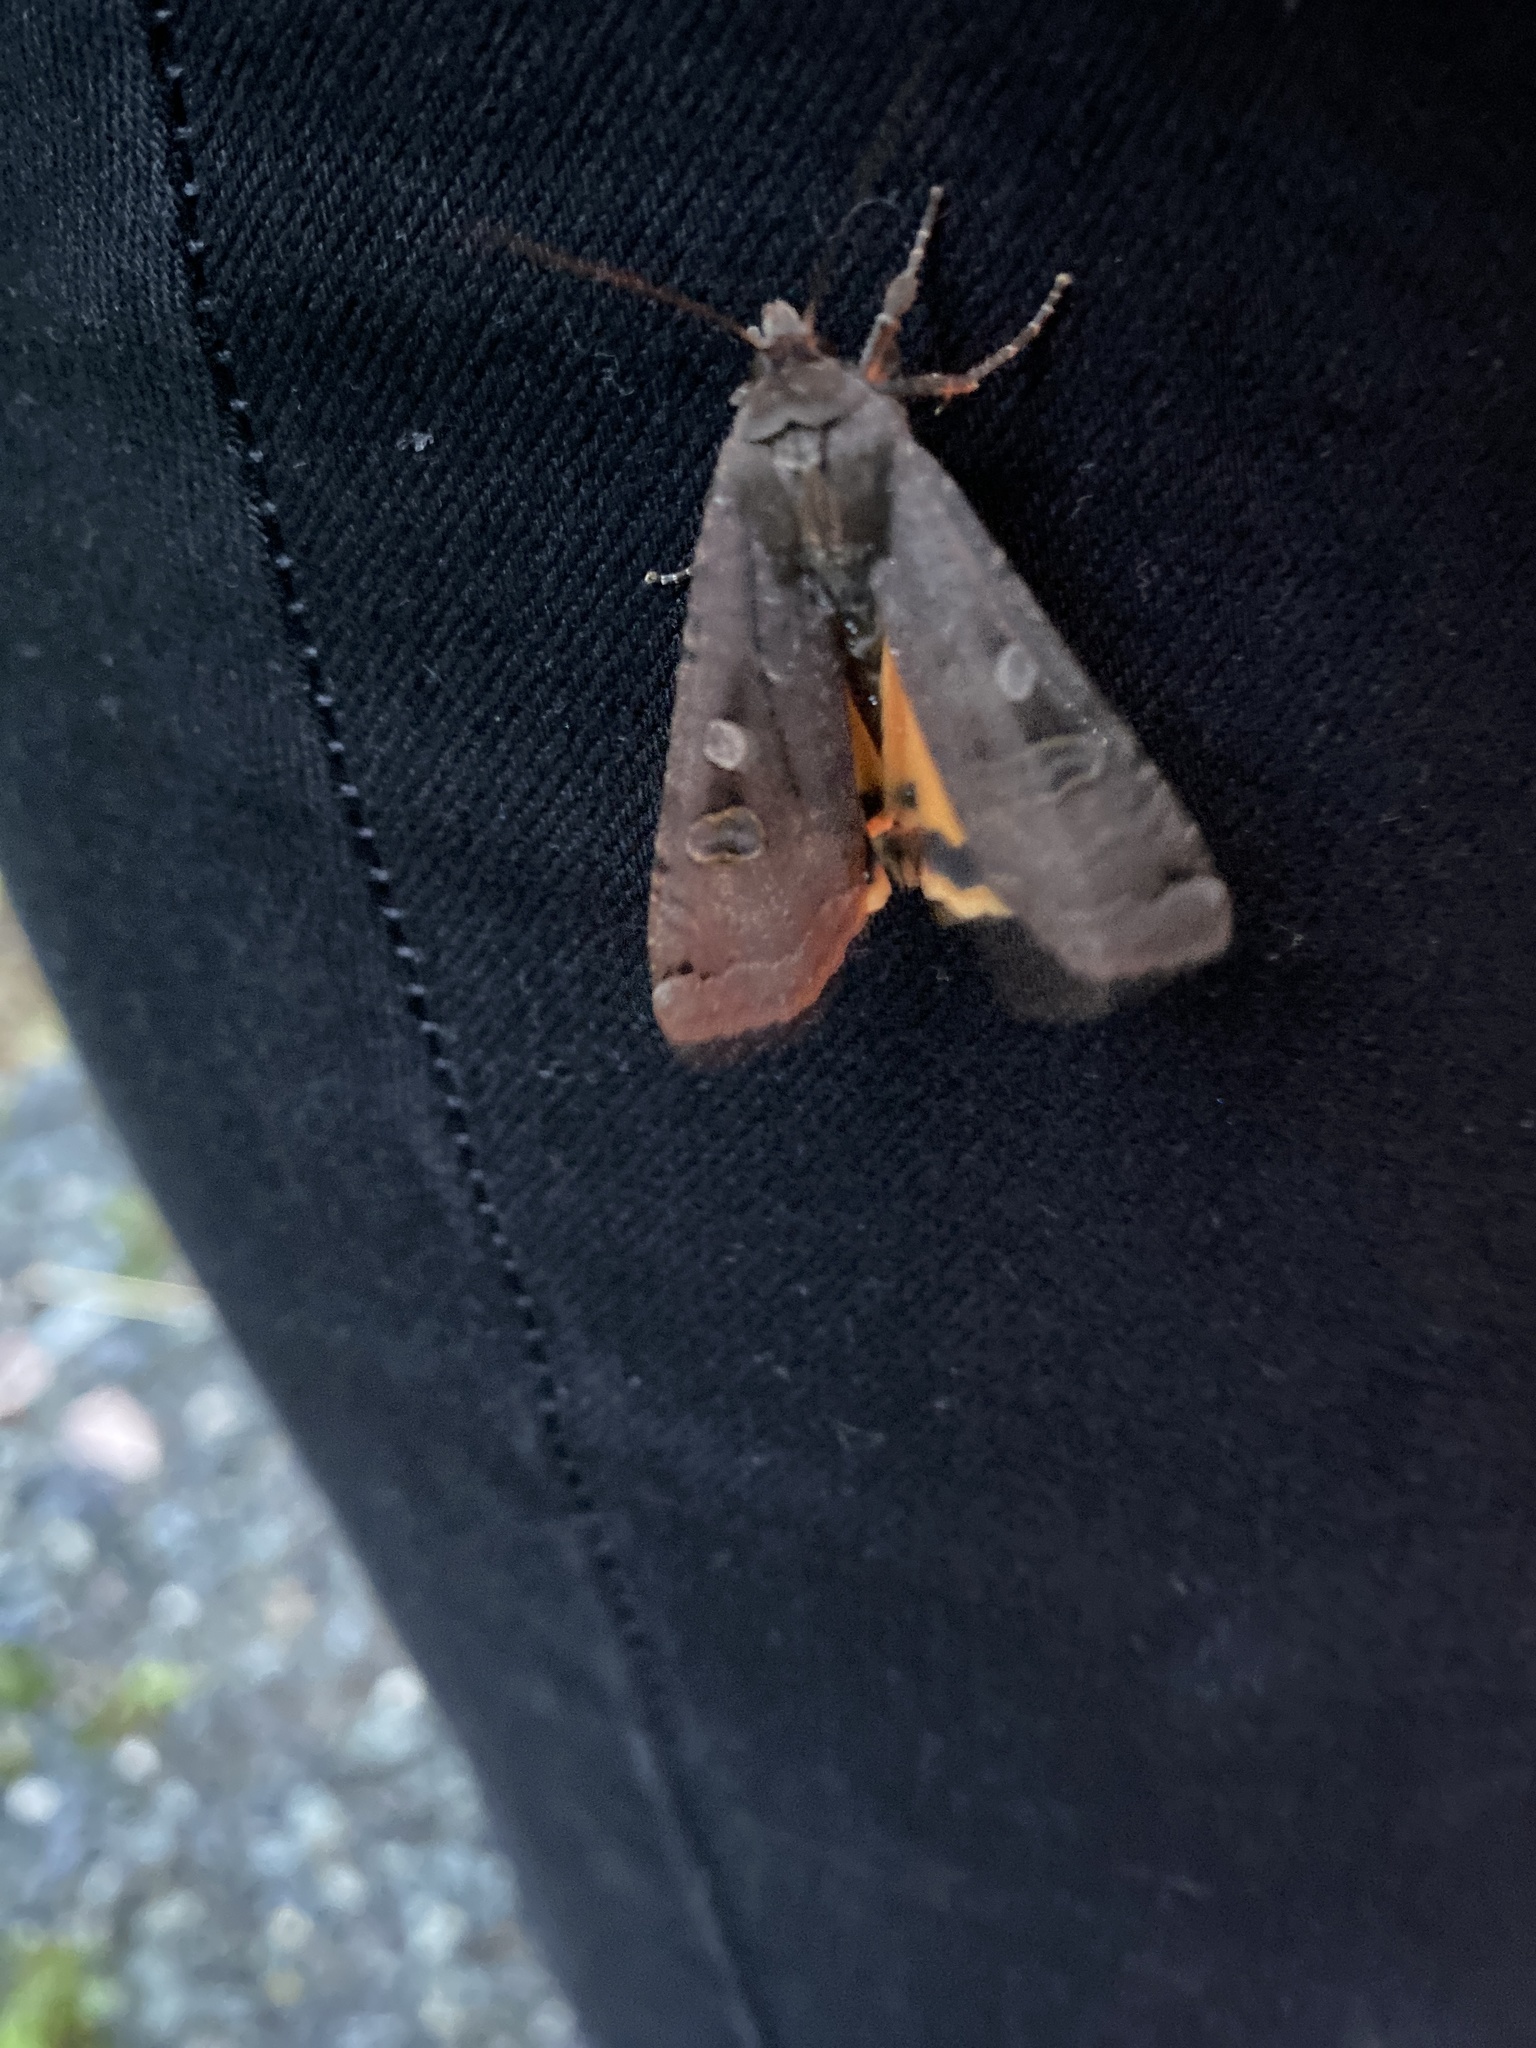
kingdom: Animalia
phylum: Arthropoda
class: Insecta
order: Lepidoptera
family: Noctuidae
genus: Noctua
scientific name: Noctua pronuba
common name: Large yellow underwing
